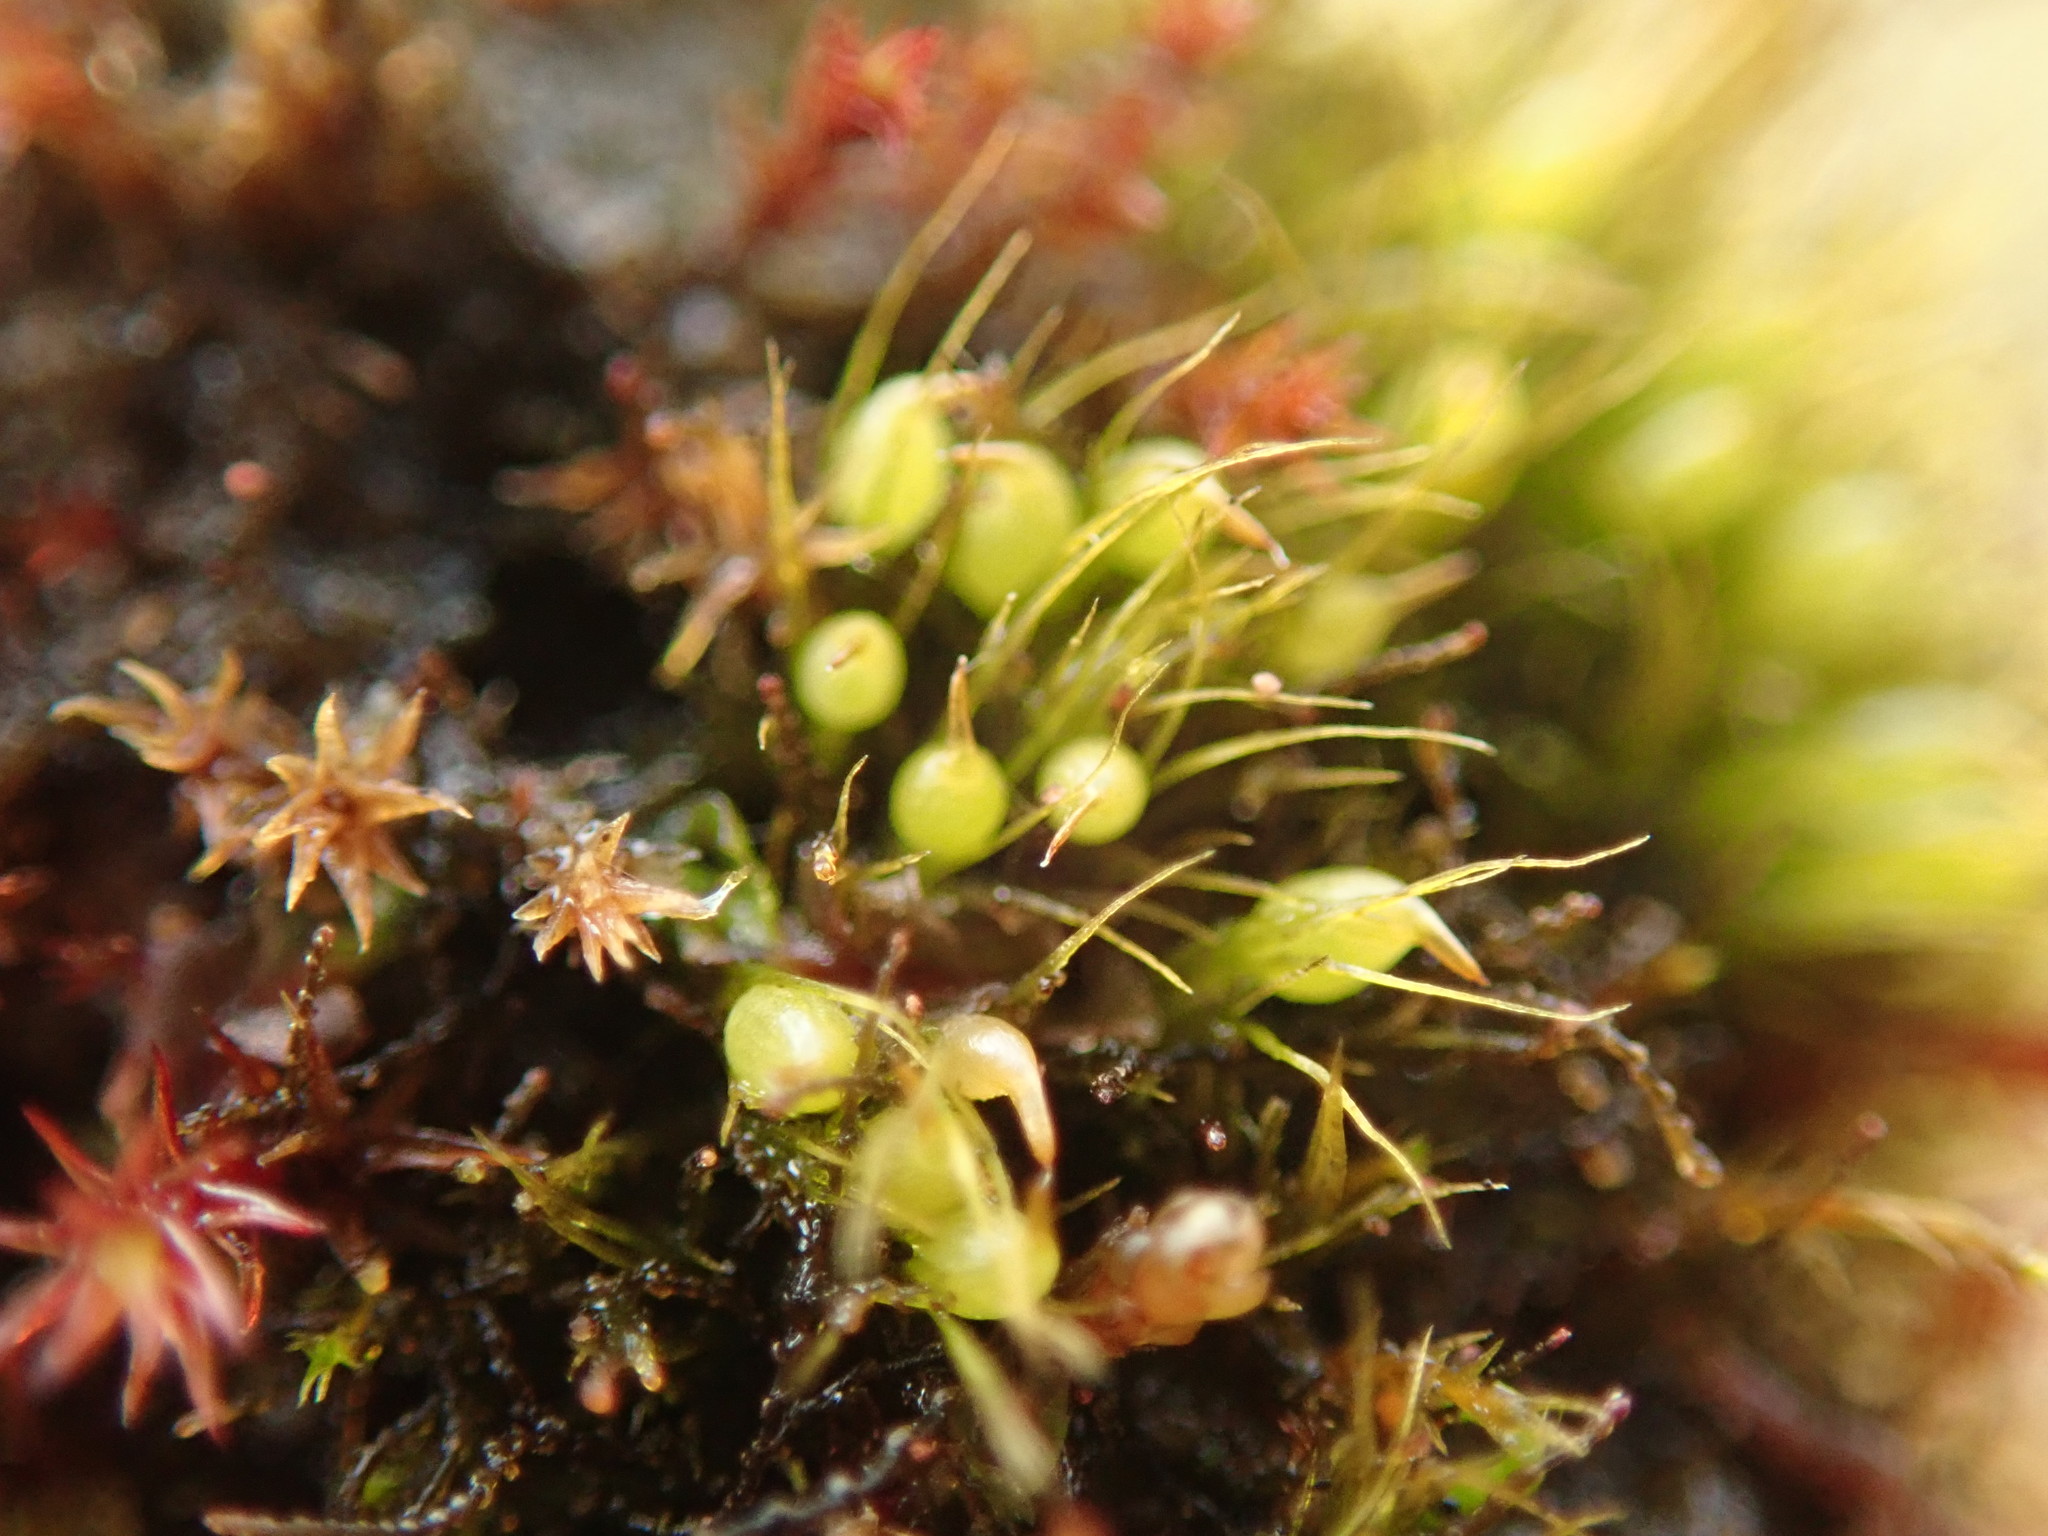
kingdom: Plantae
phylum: Bryophyta
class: Bryopsida
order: Dicranales
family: Ditrichaceae
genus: Pleuridium
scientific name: Pleuridium acuminatum
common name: Taper-leaved earth-moss
